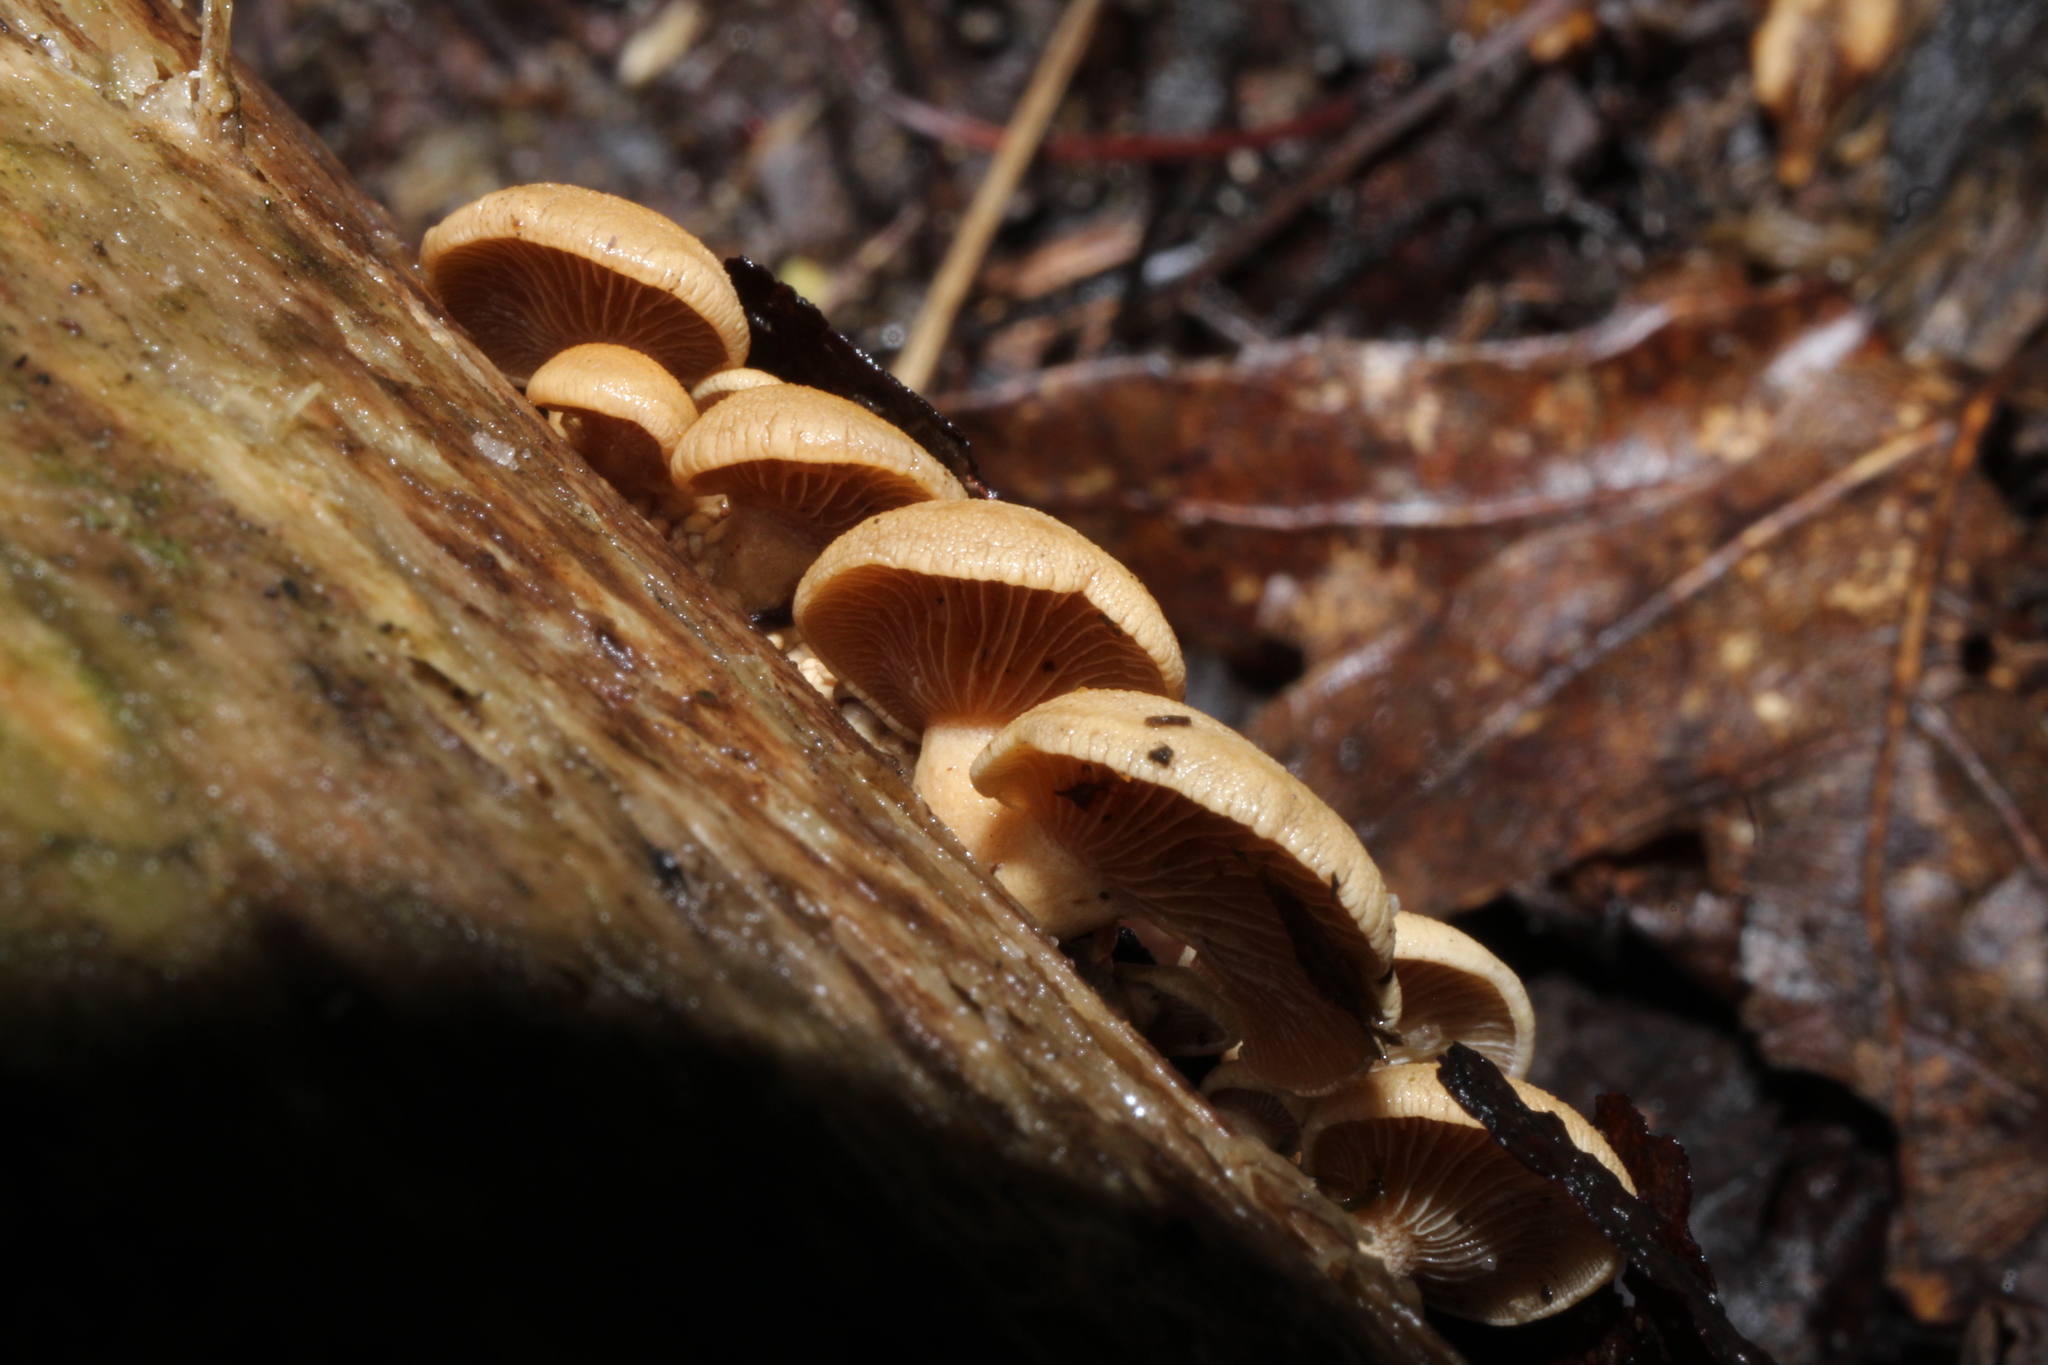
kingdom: Fungi
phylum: Basidiomycota
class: Agaricomycetes
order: Agaricales
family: Mycenaceae
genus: Panellus
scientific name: Panellus stipticus
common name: Bitter oysterling
